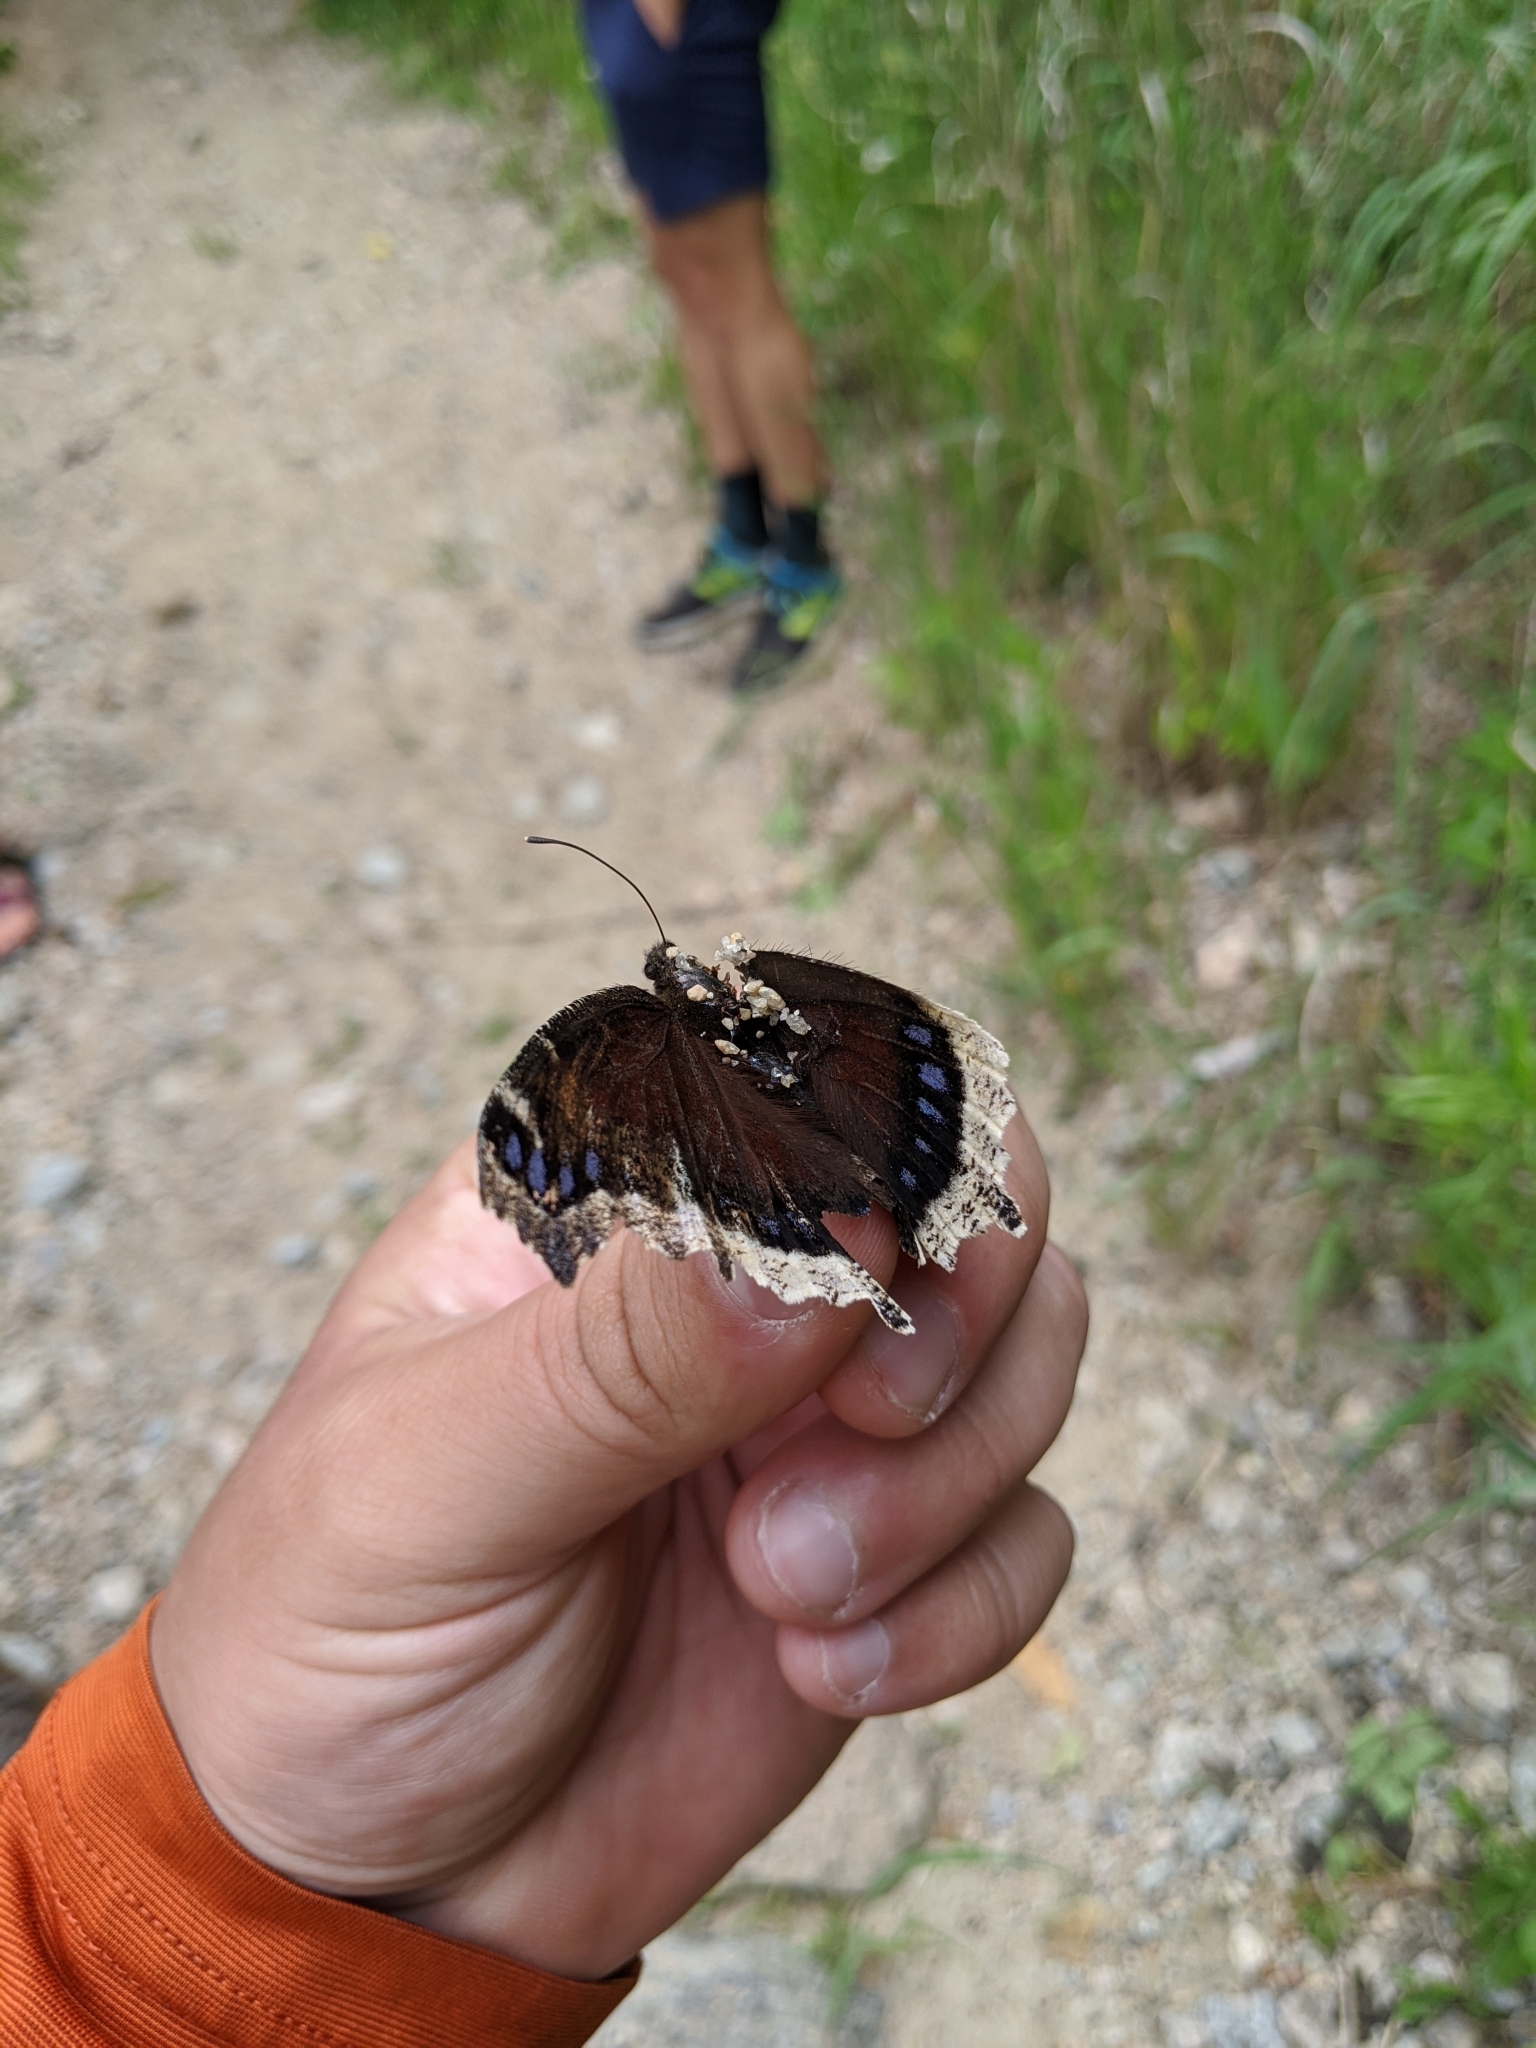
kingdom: Animalia
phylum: Arthropoda
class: Insecta
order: Lepidoptera
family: Nymphalidae
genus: Nymphalis
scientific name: Nymphalis antiopa
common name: Camberwell beauty
